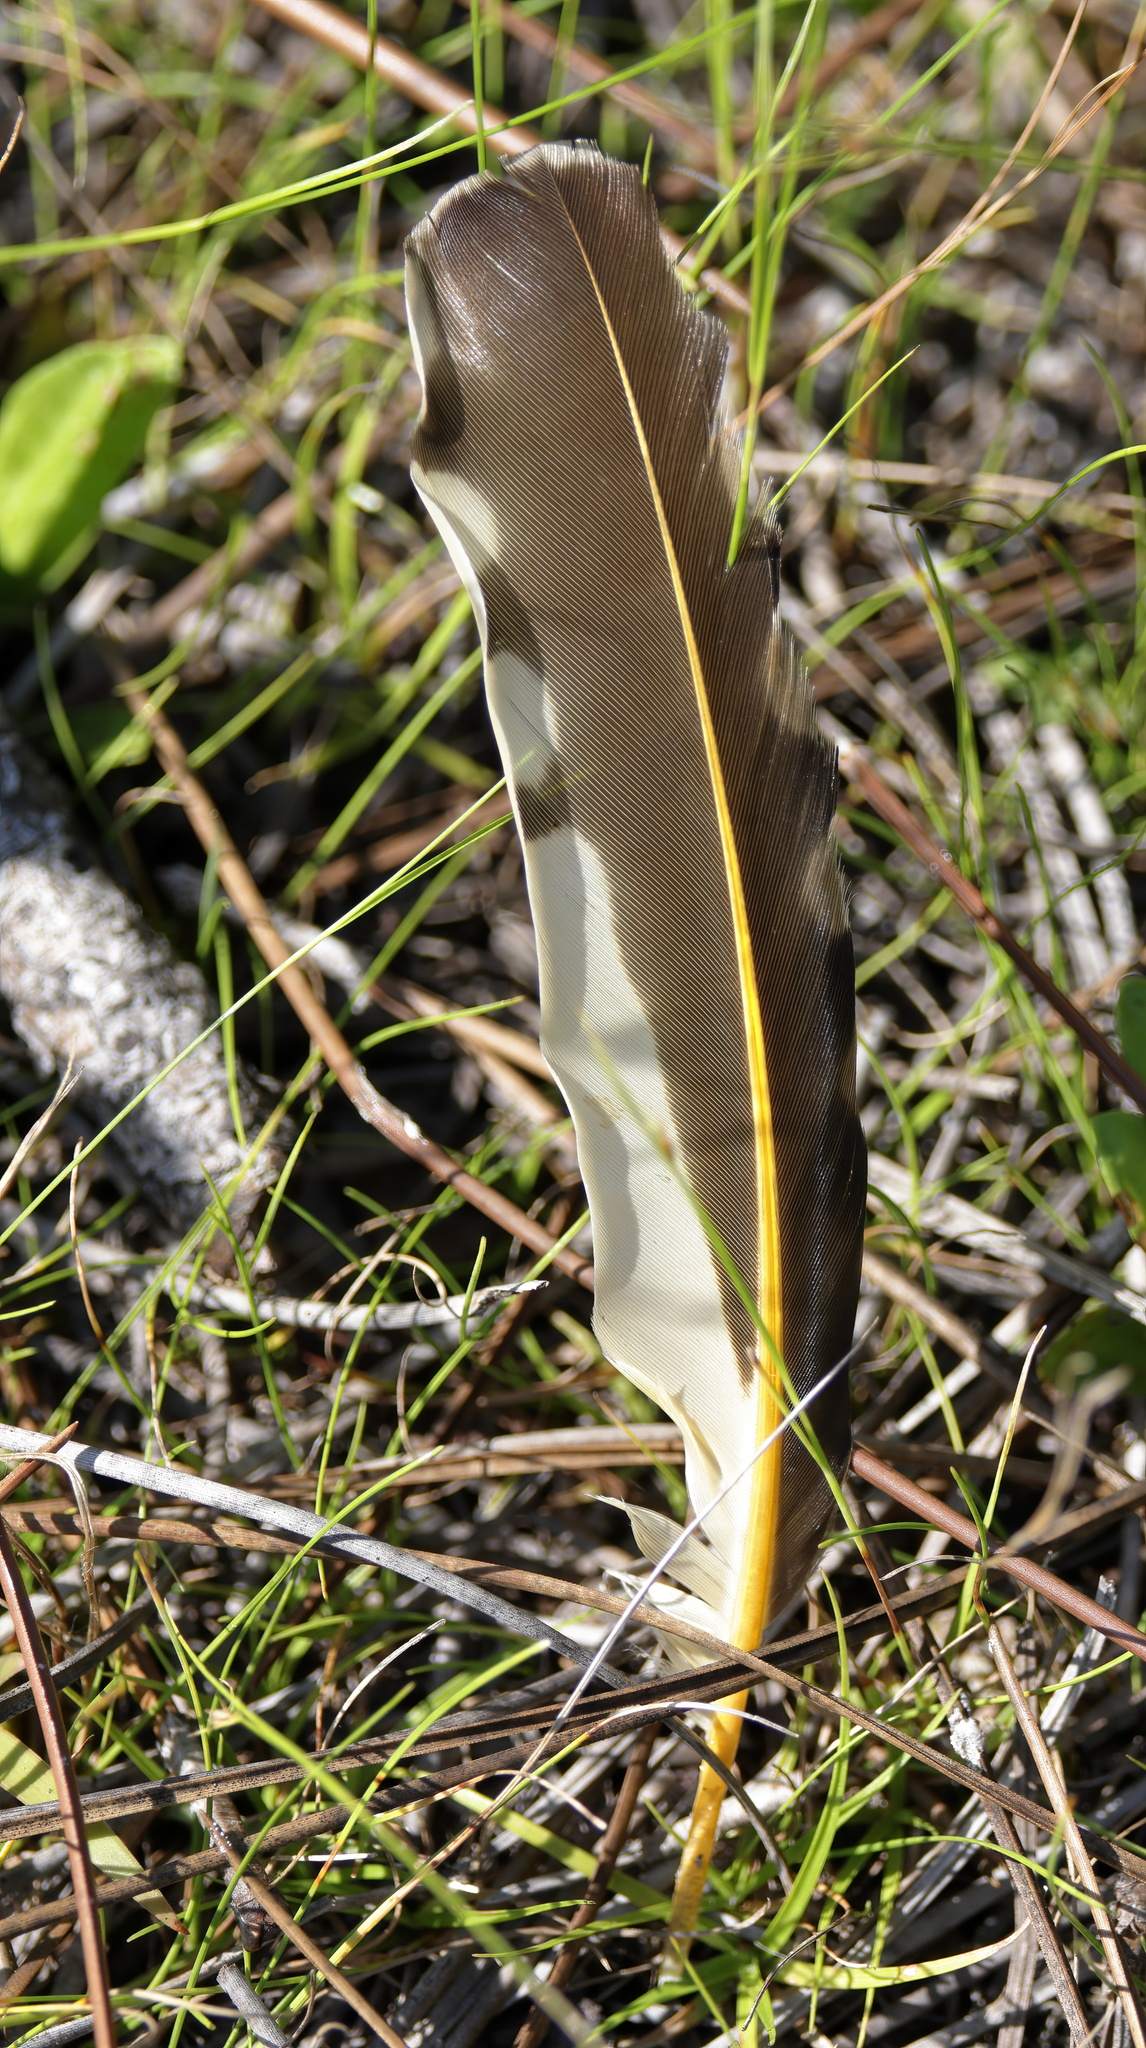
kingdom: Animalia
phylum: Chordata
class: Aves
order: Piciformes
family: Picidae
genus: Colaptes
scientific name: Colaptes auratus
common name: Northern flicker
